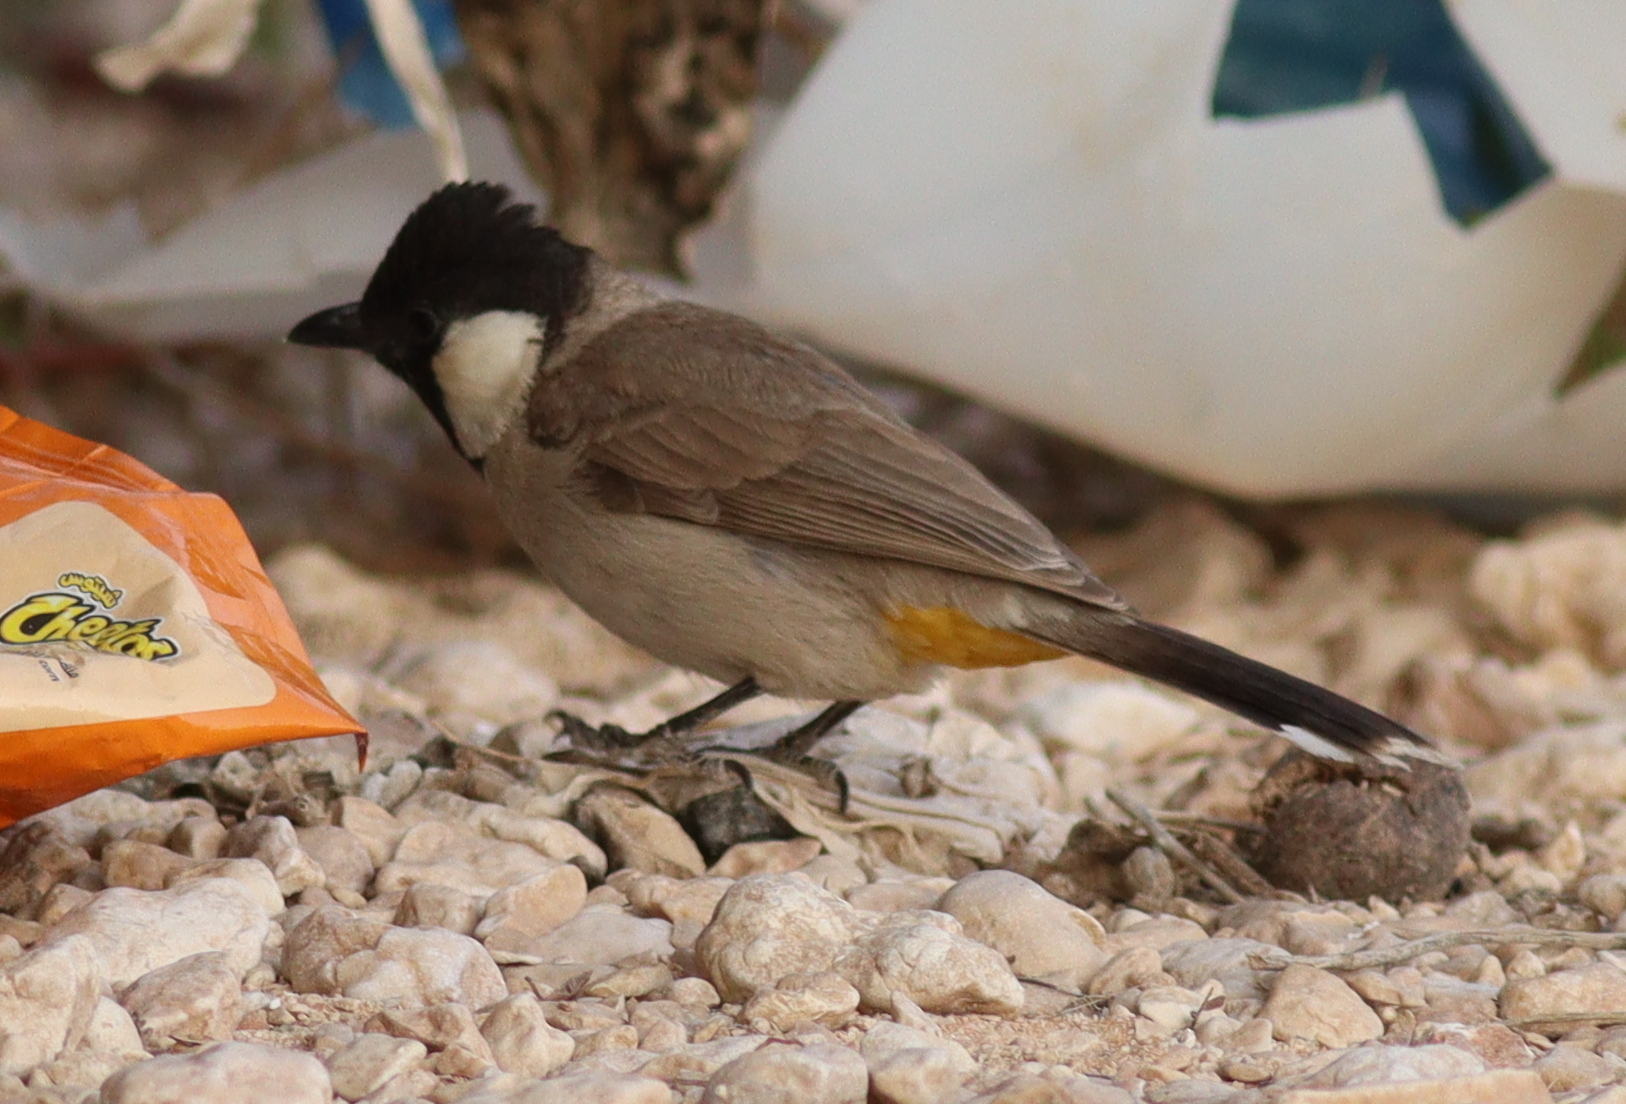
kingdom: Animalia
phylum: Chordata
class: Aves
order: Passeriformes
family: Pycnonotidae
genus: Pycnonotus
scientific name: Pycnonotus leucotis
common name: White-eared bulbul
